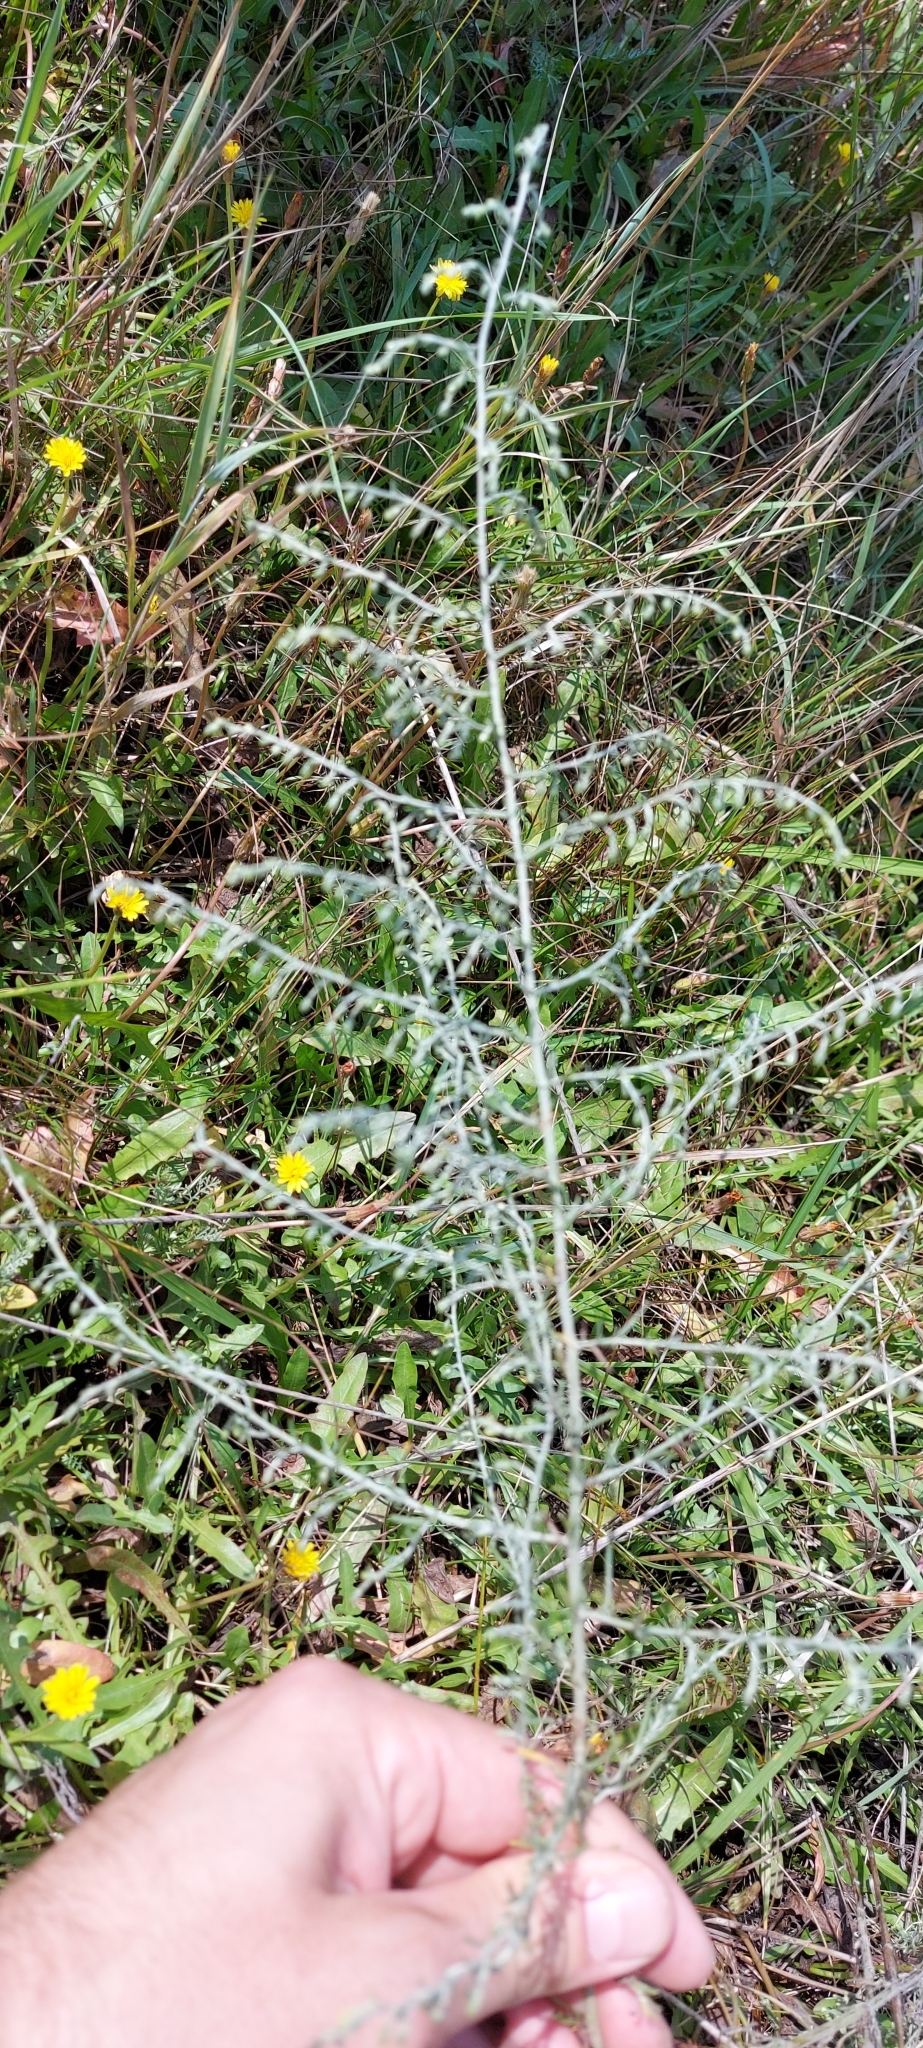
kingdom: Plantae
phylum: Tracheophyta
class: Magnoliopsida
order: Asterales
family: Asteraceae
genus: Artemisia
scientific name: Artemisia santonicum
